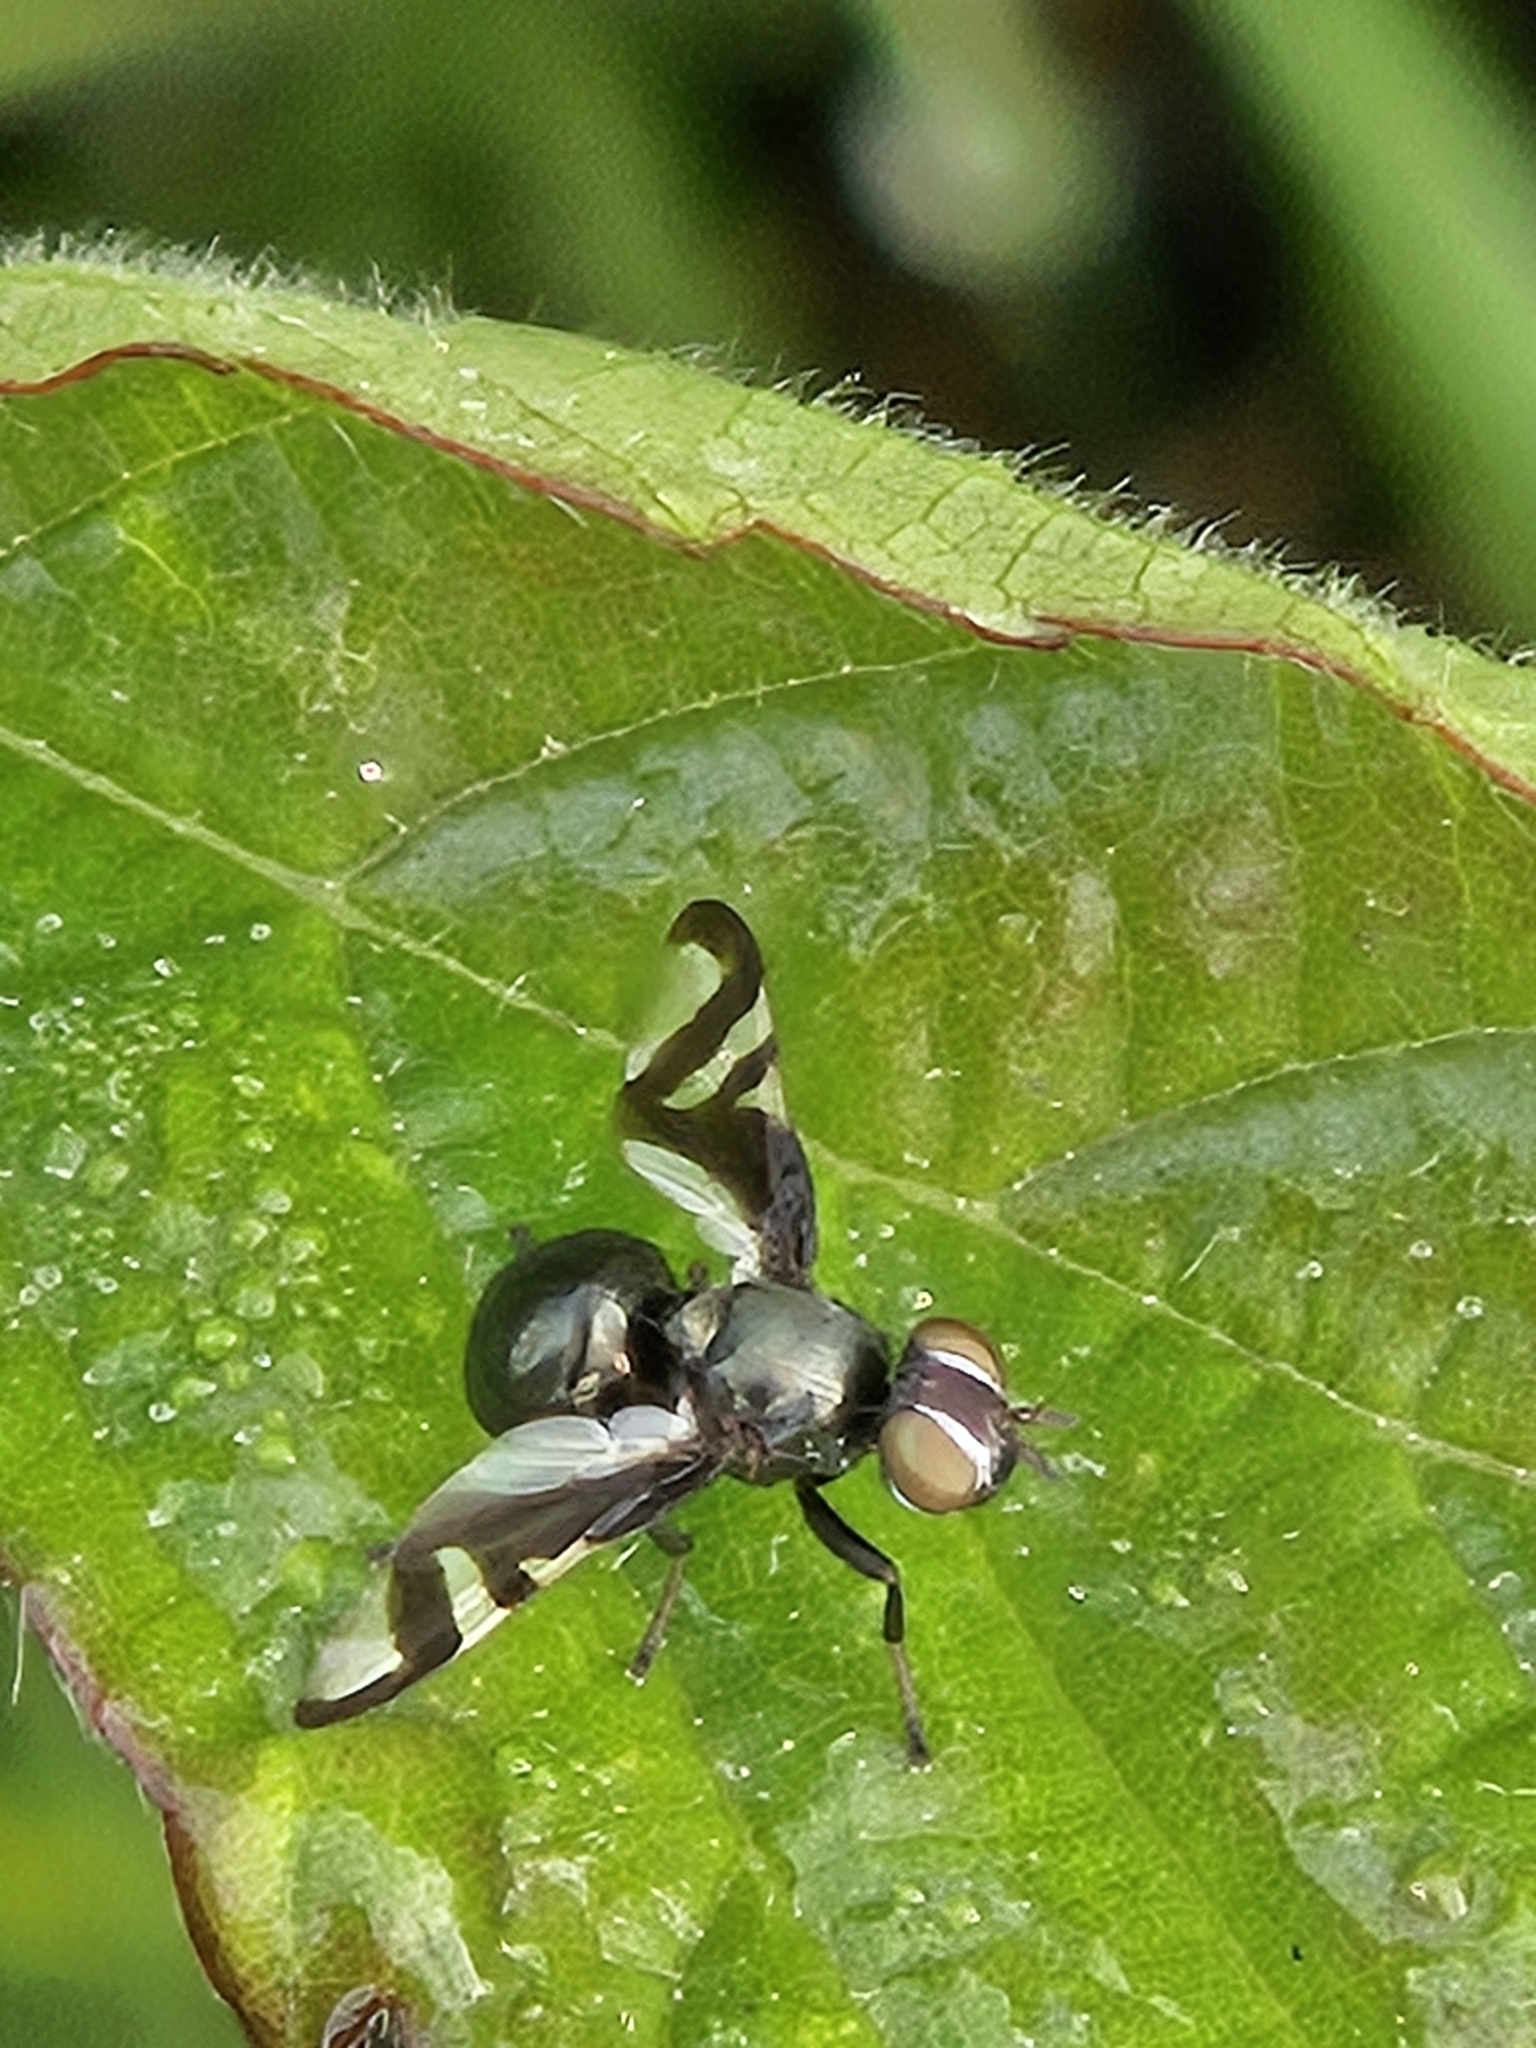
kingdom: Animalia
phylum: Arthropoda
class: Insecta
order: Diptera
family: Platystomatidae
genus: Rivellia
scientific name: Rivellia conjuncta
